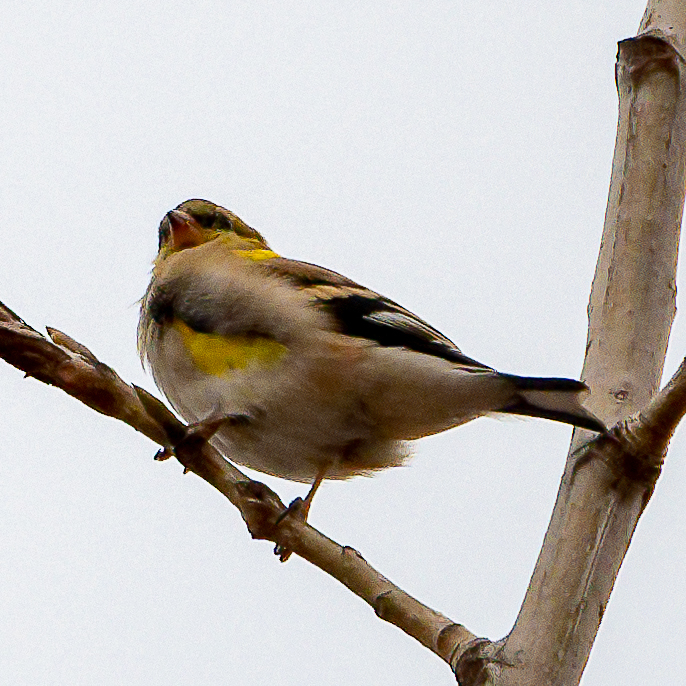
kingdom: Animalia
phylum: Chordata
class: Aves
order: Passeriformes
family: Fringillidae
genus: Spinus
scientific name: Spinus tristis
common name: American goldfinch
